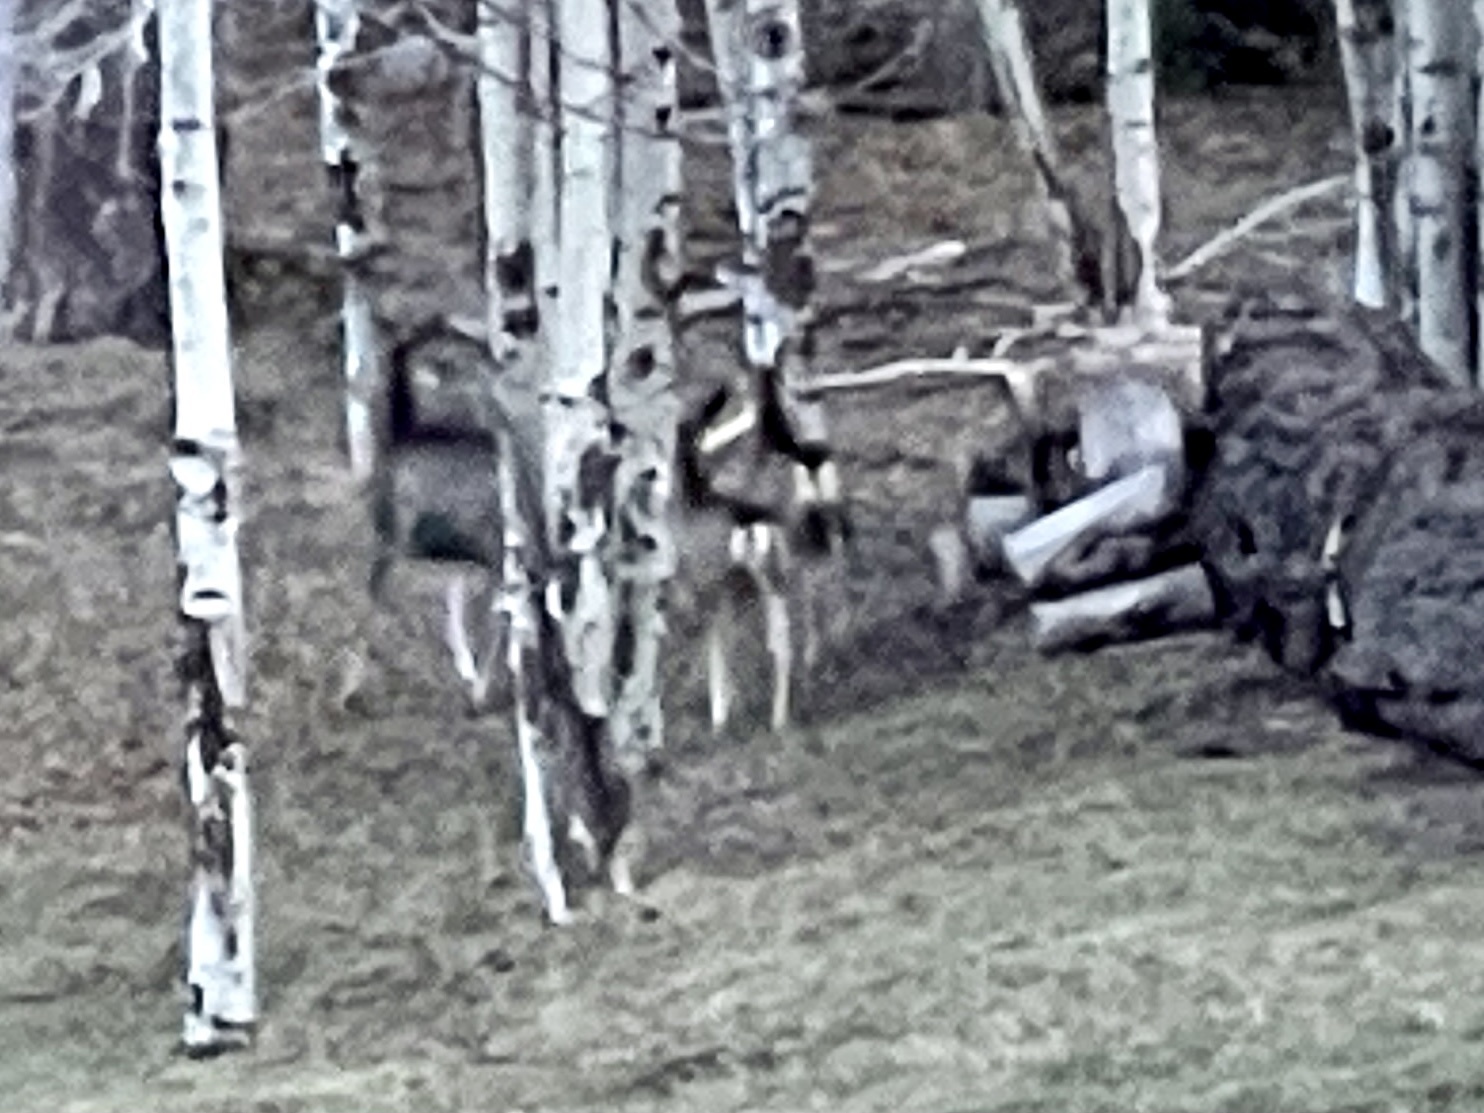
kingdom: Animalia
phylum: Chordata
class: Mammalia
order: Artiodactyla
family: Cervidae
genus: Odocoileus
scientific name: Odocoileus hemionus
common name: Mule deer
